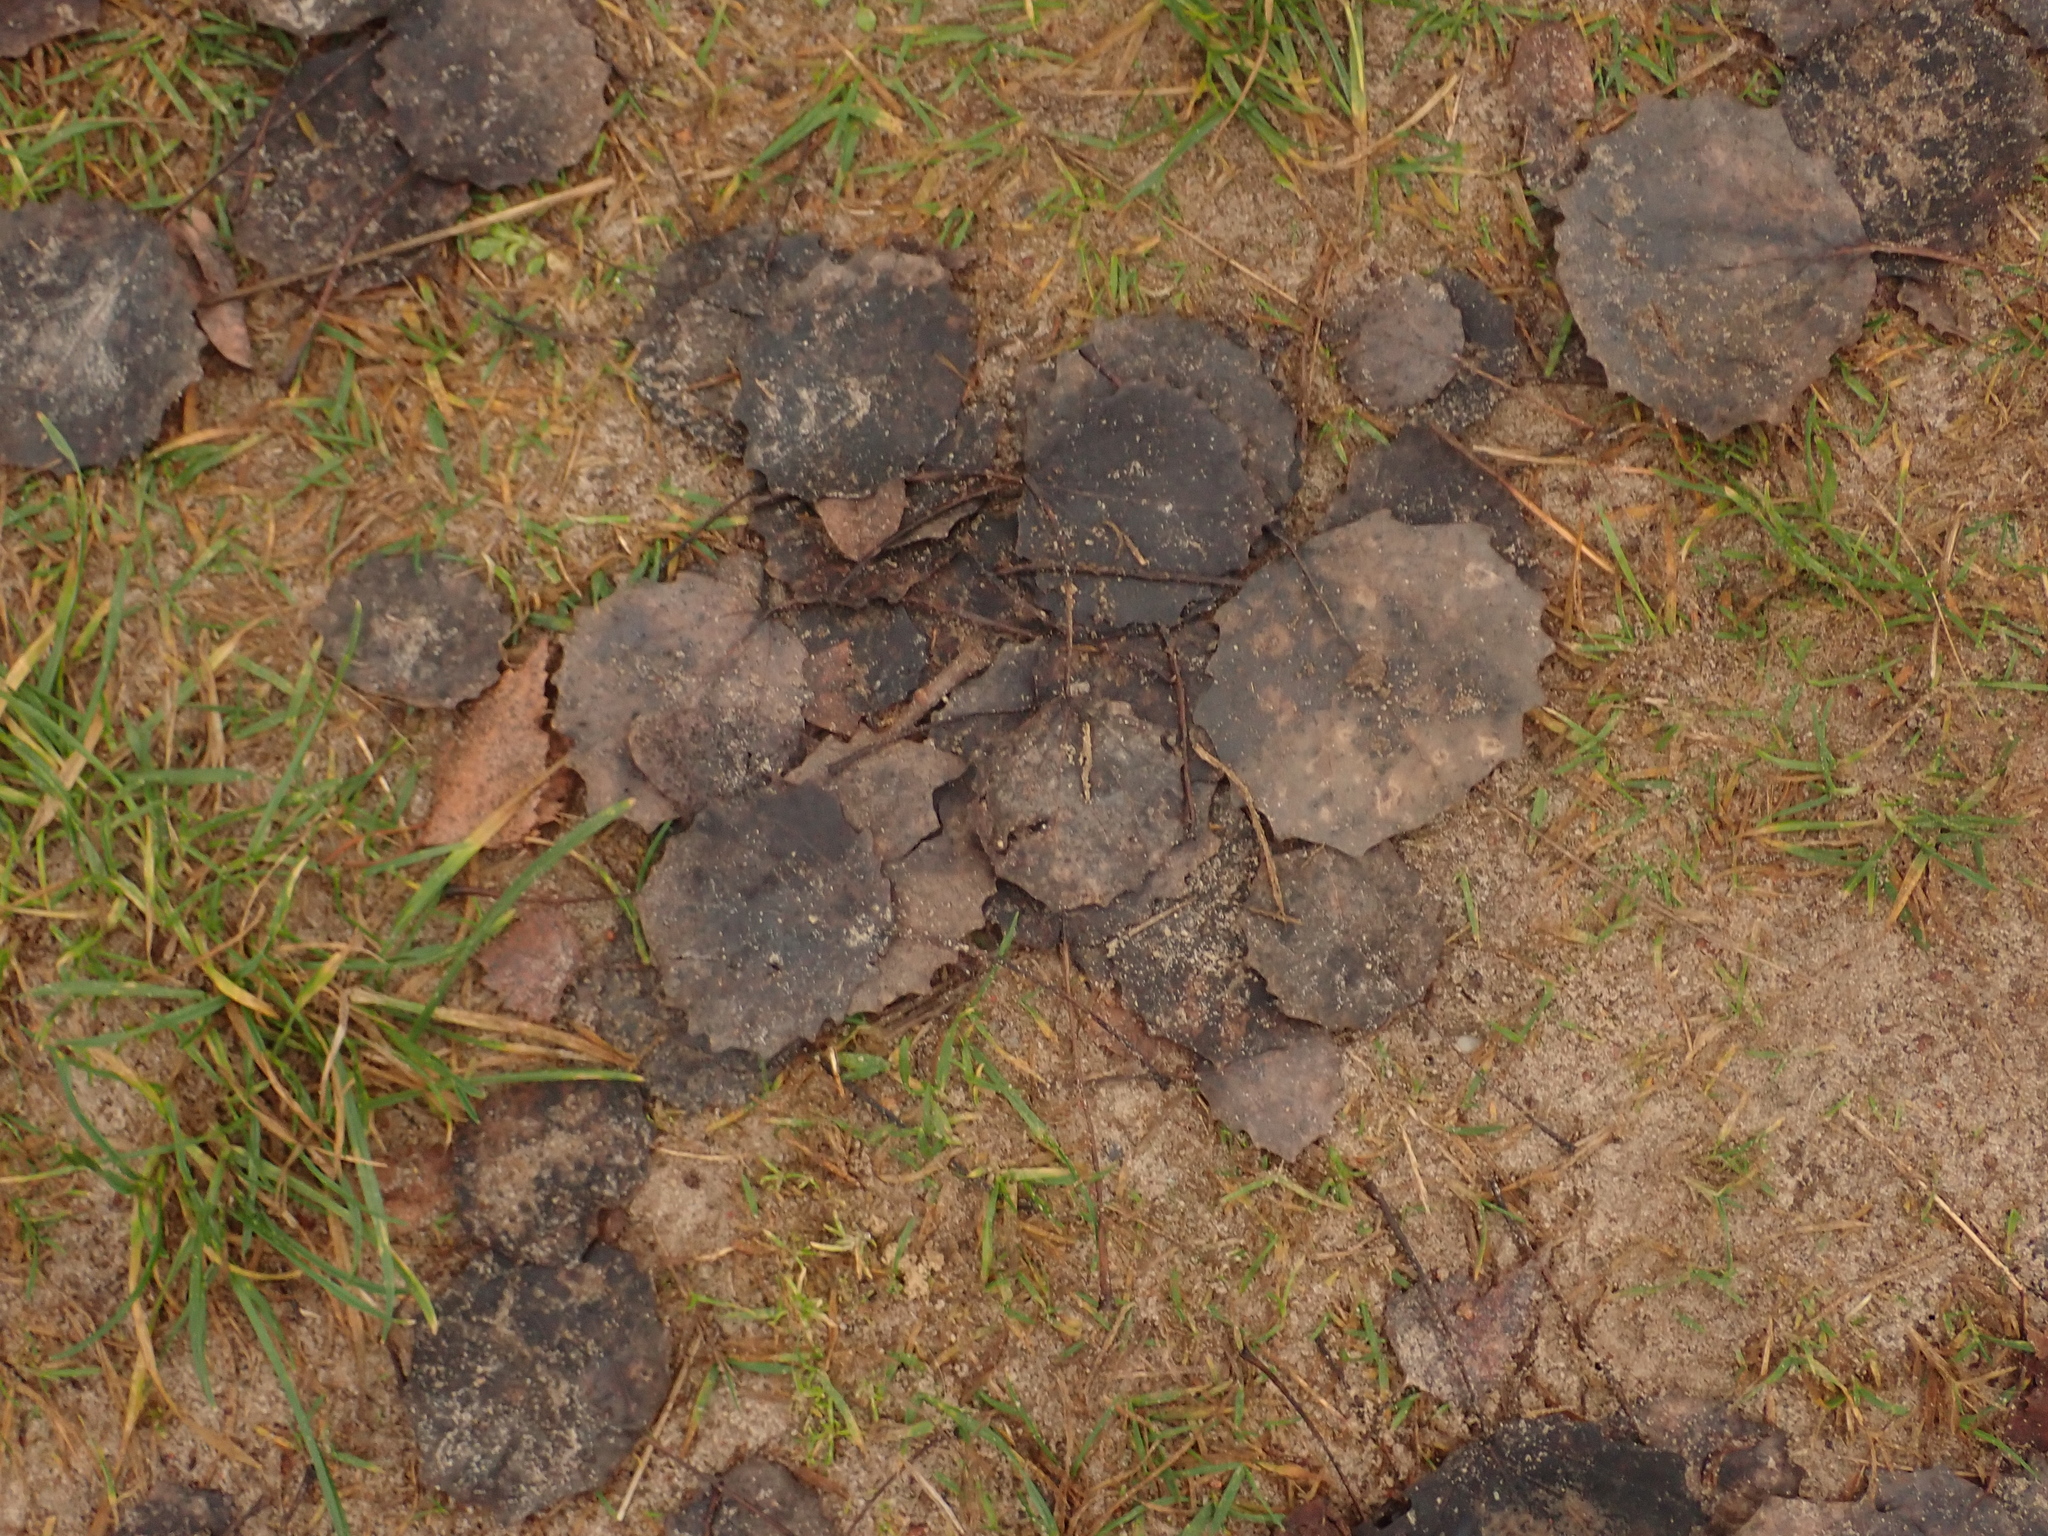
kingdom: Plantae
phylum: Tracheophyta
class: Magnoliopsida
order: Malpighiales
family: Salicaceae
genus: Populus
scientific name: Populus tremula
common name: European aspen
